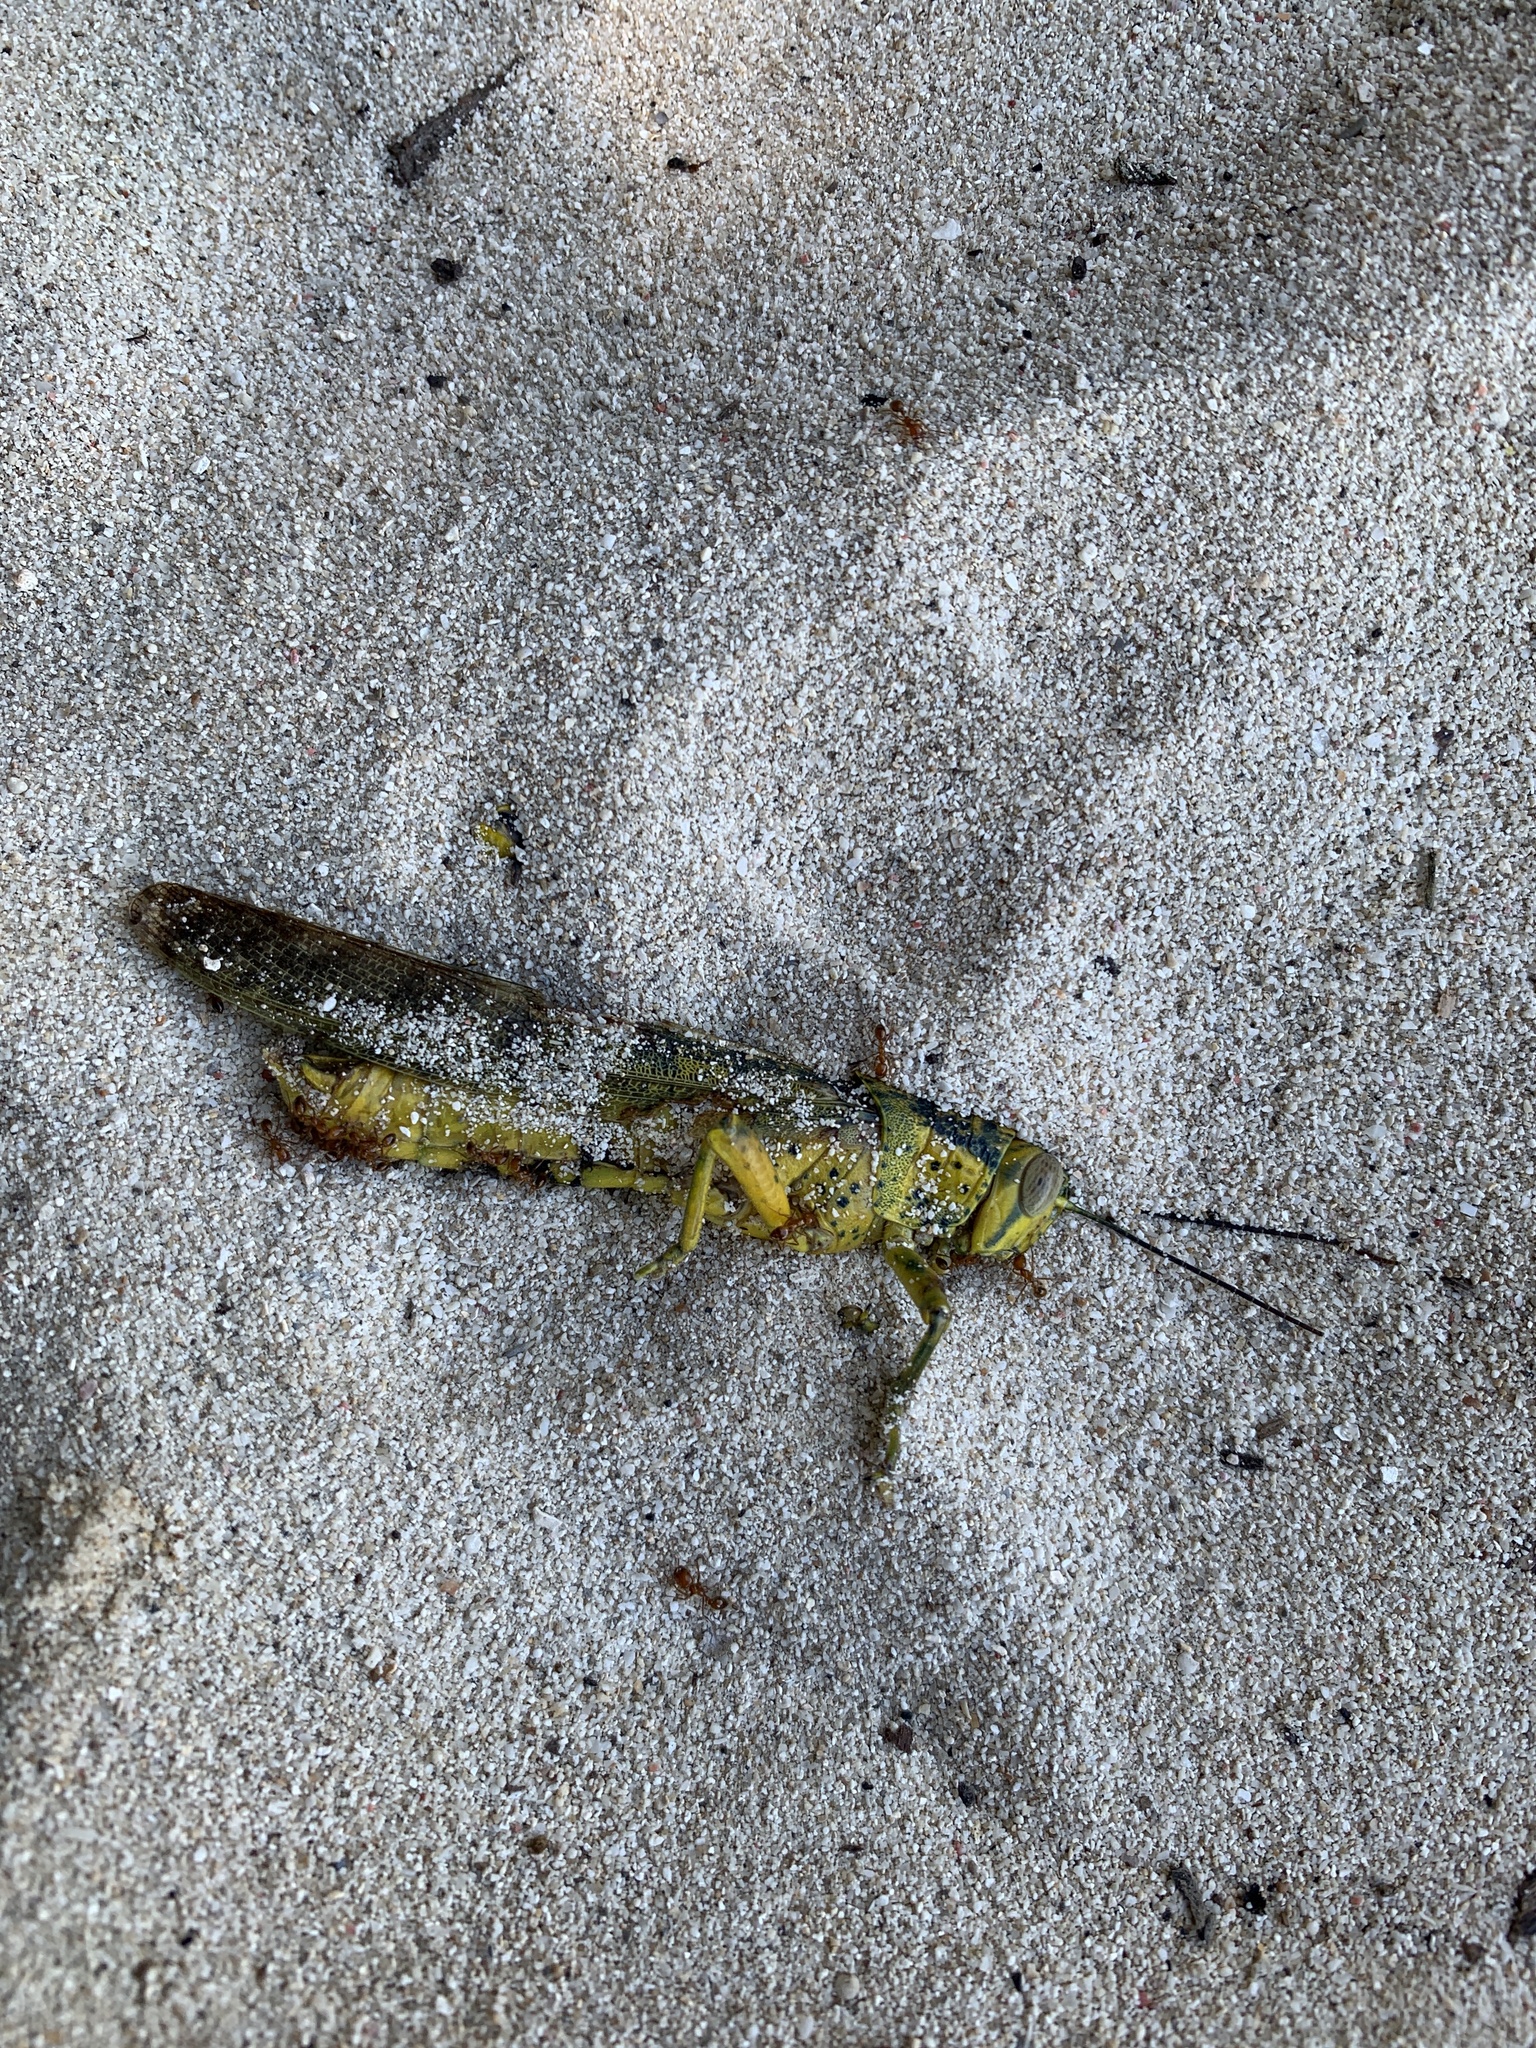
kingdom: Animalia
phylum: Arthropoda
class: Insecta
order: Orthoptera
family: Acrididae
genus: Valanga
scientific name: Valanga nigricornis
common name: Javanese bird grasshopper
